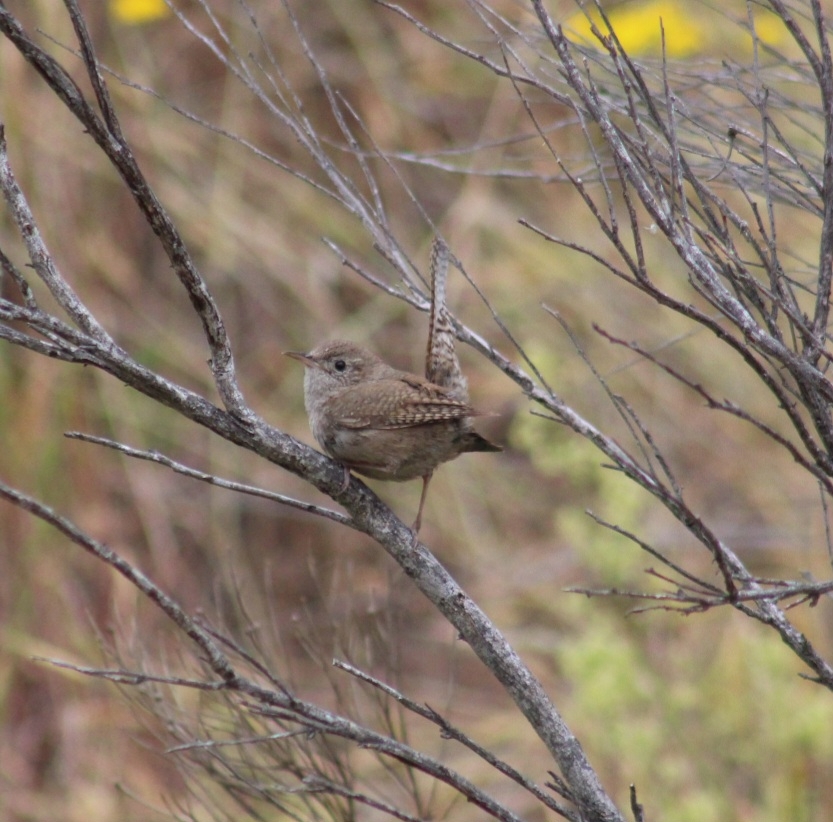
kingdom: Animalia
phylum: Chordata
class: Aves
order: Passeriformes
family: Troglodytidae
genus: Troglodytes
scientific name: Troglodytes aedon
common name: House wren
